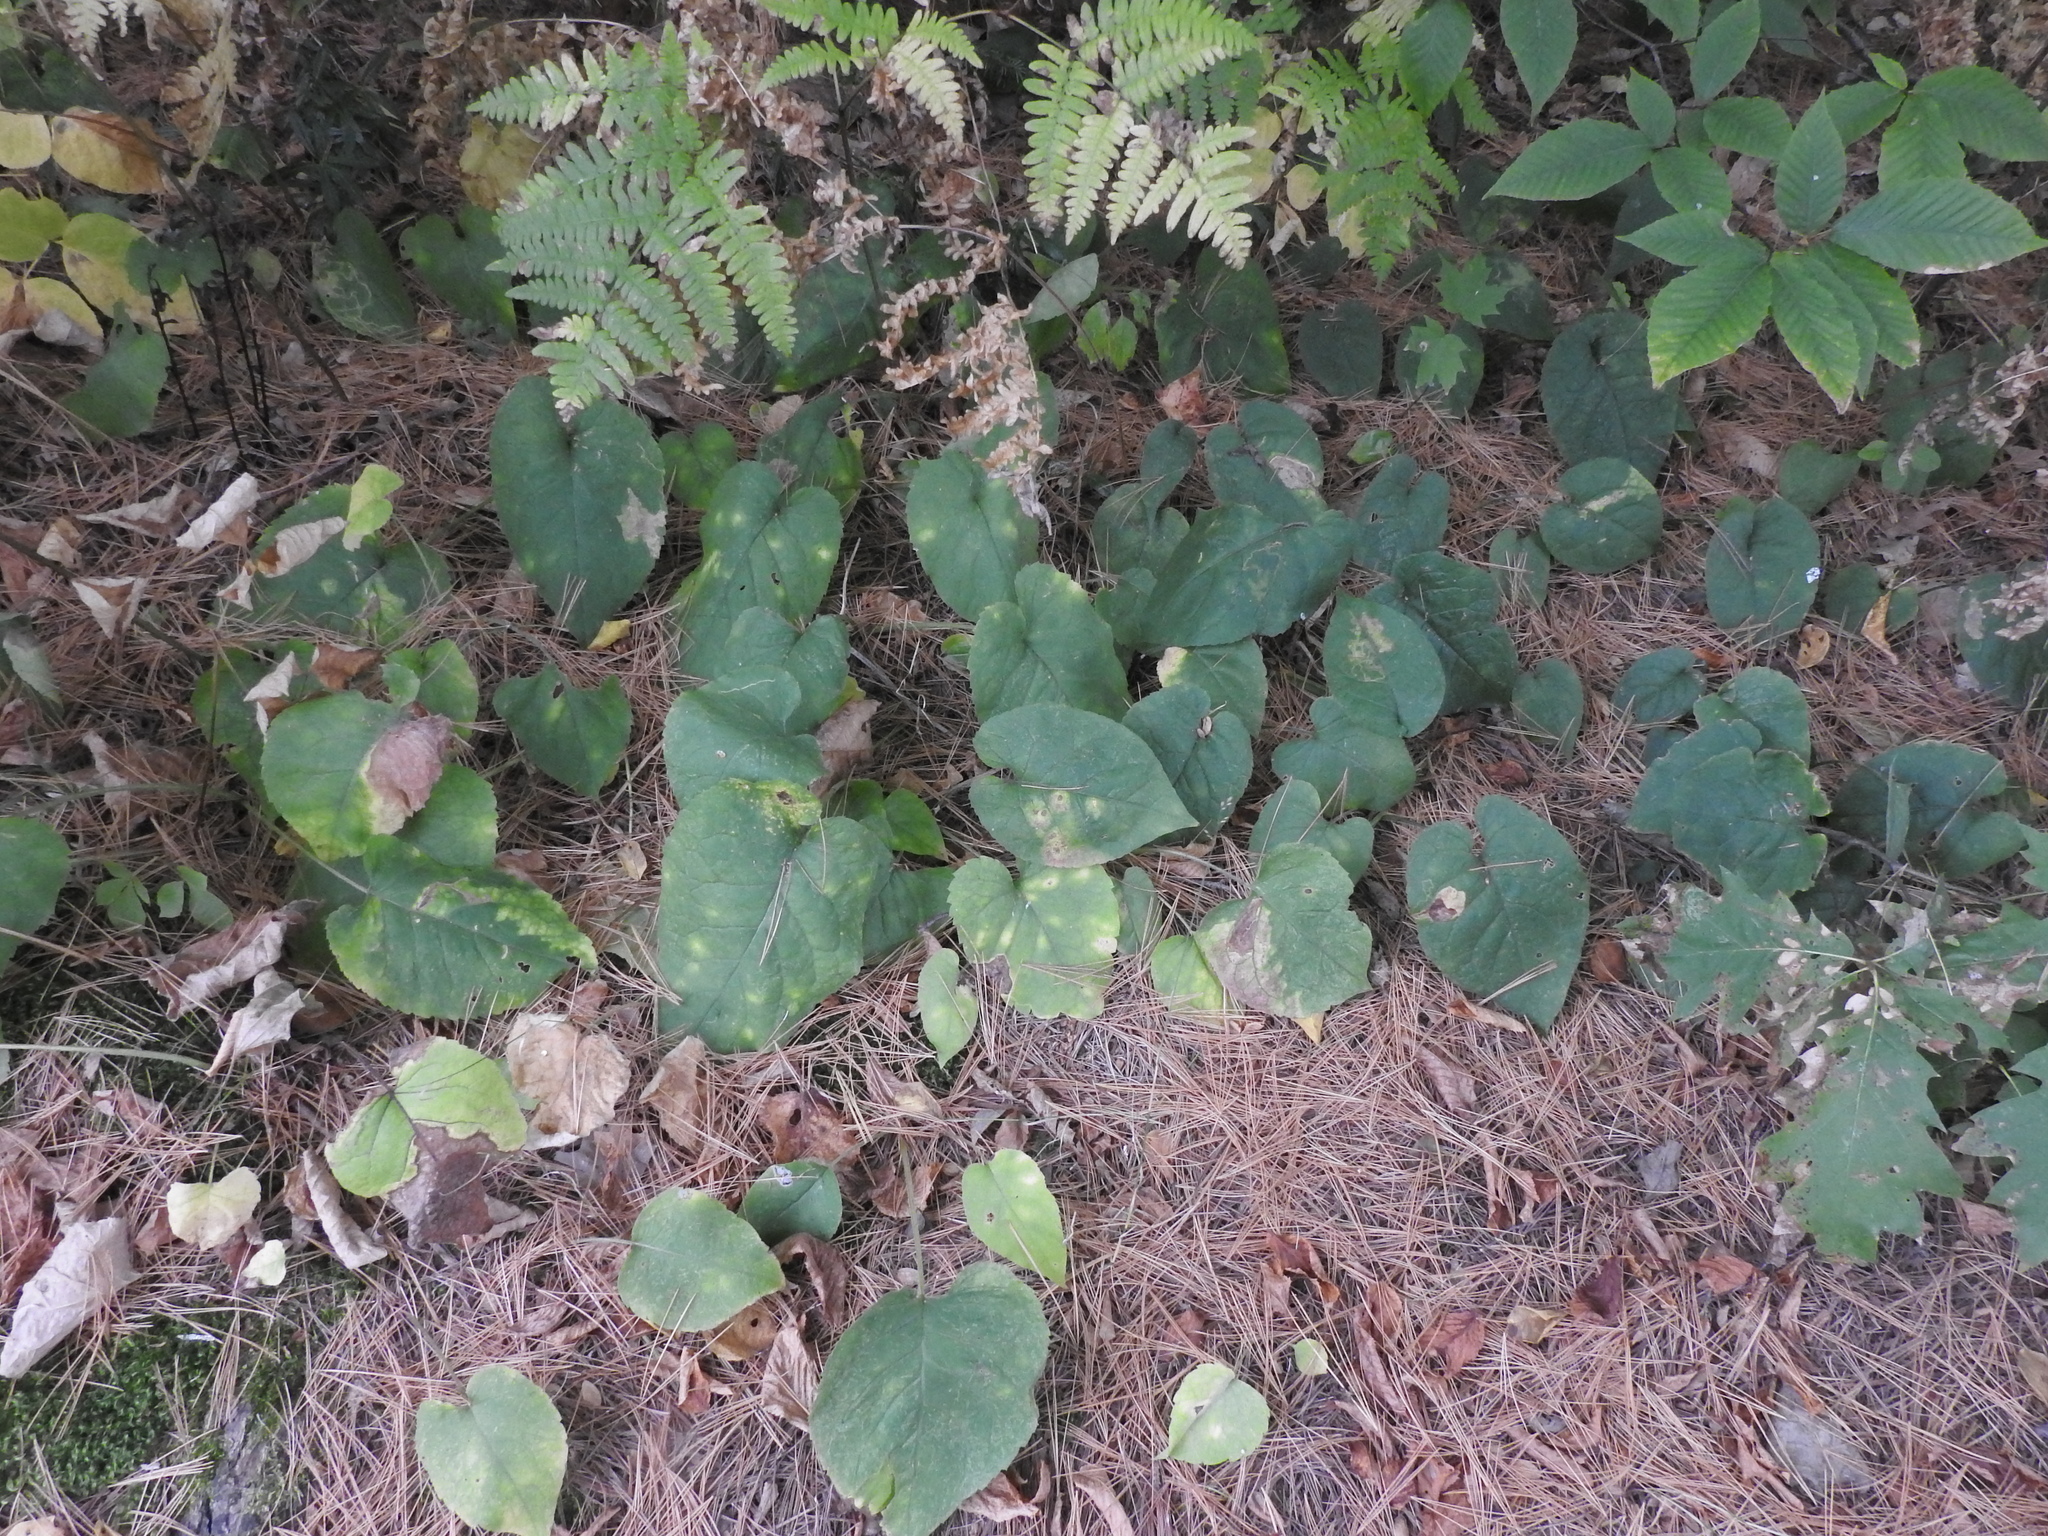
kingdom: Plantae
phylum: Tracheophyta
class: Magnoliopsida
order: Asterales
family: Asteraceae
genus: Eurybia
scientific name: Eurybia macrophylla
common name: Big-leaved aster
